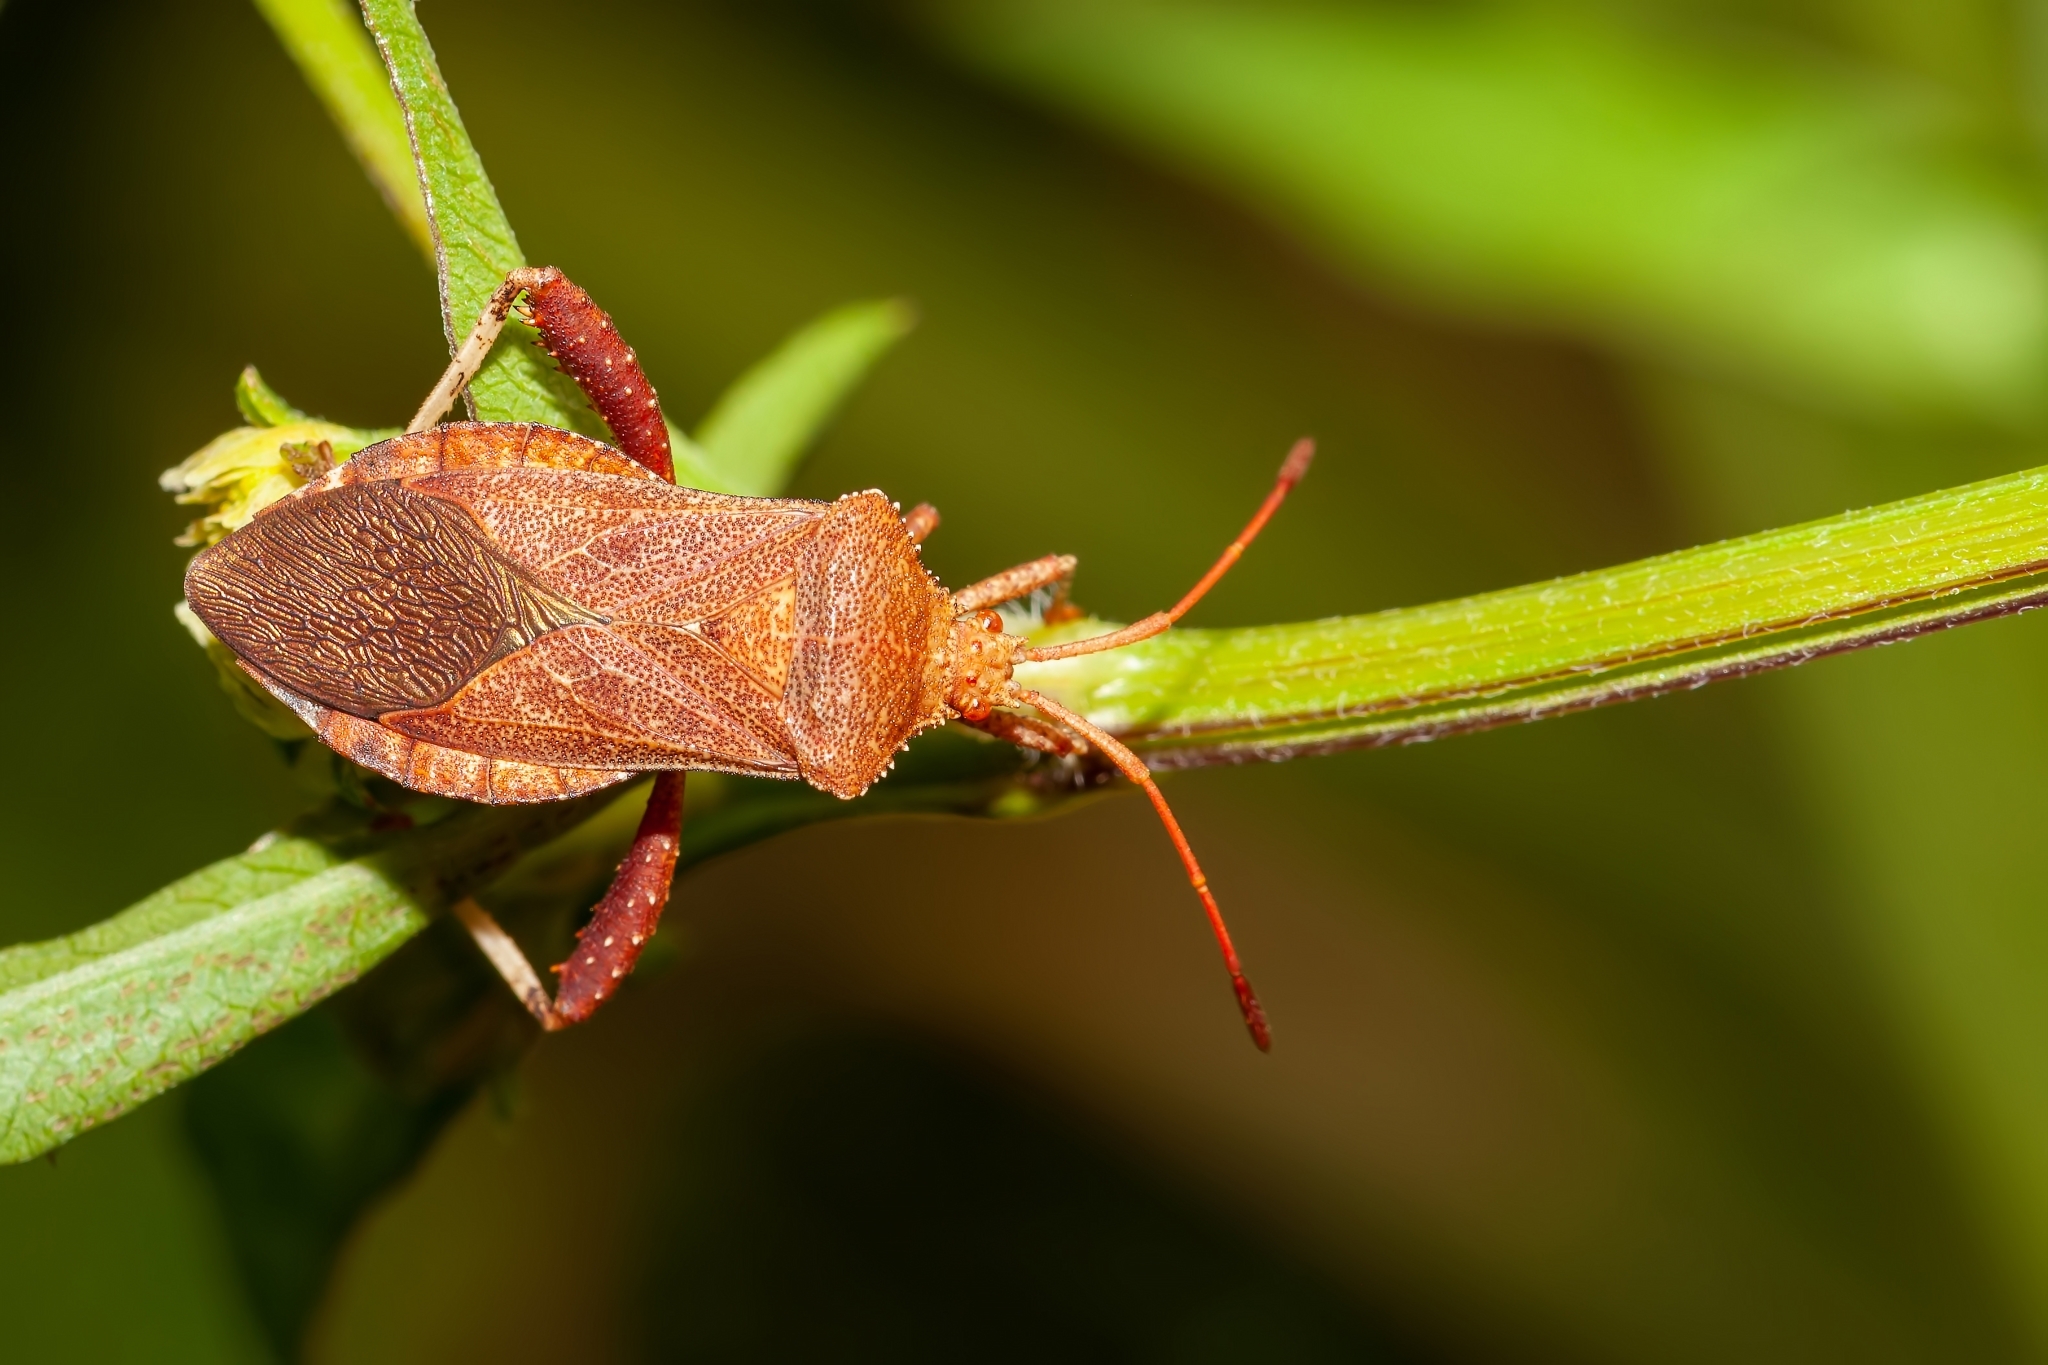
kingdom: Animalia
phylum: Arthropoda
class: Insecta
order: Hemiptera
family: Coreidae
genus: Euthochtha
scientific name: Euthochtha galeator
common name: Helmeted squash bug
